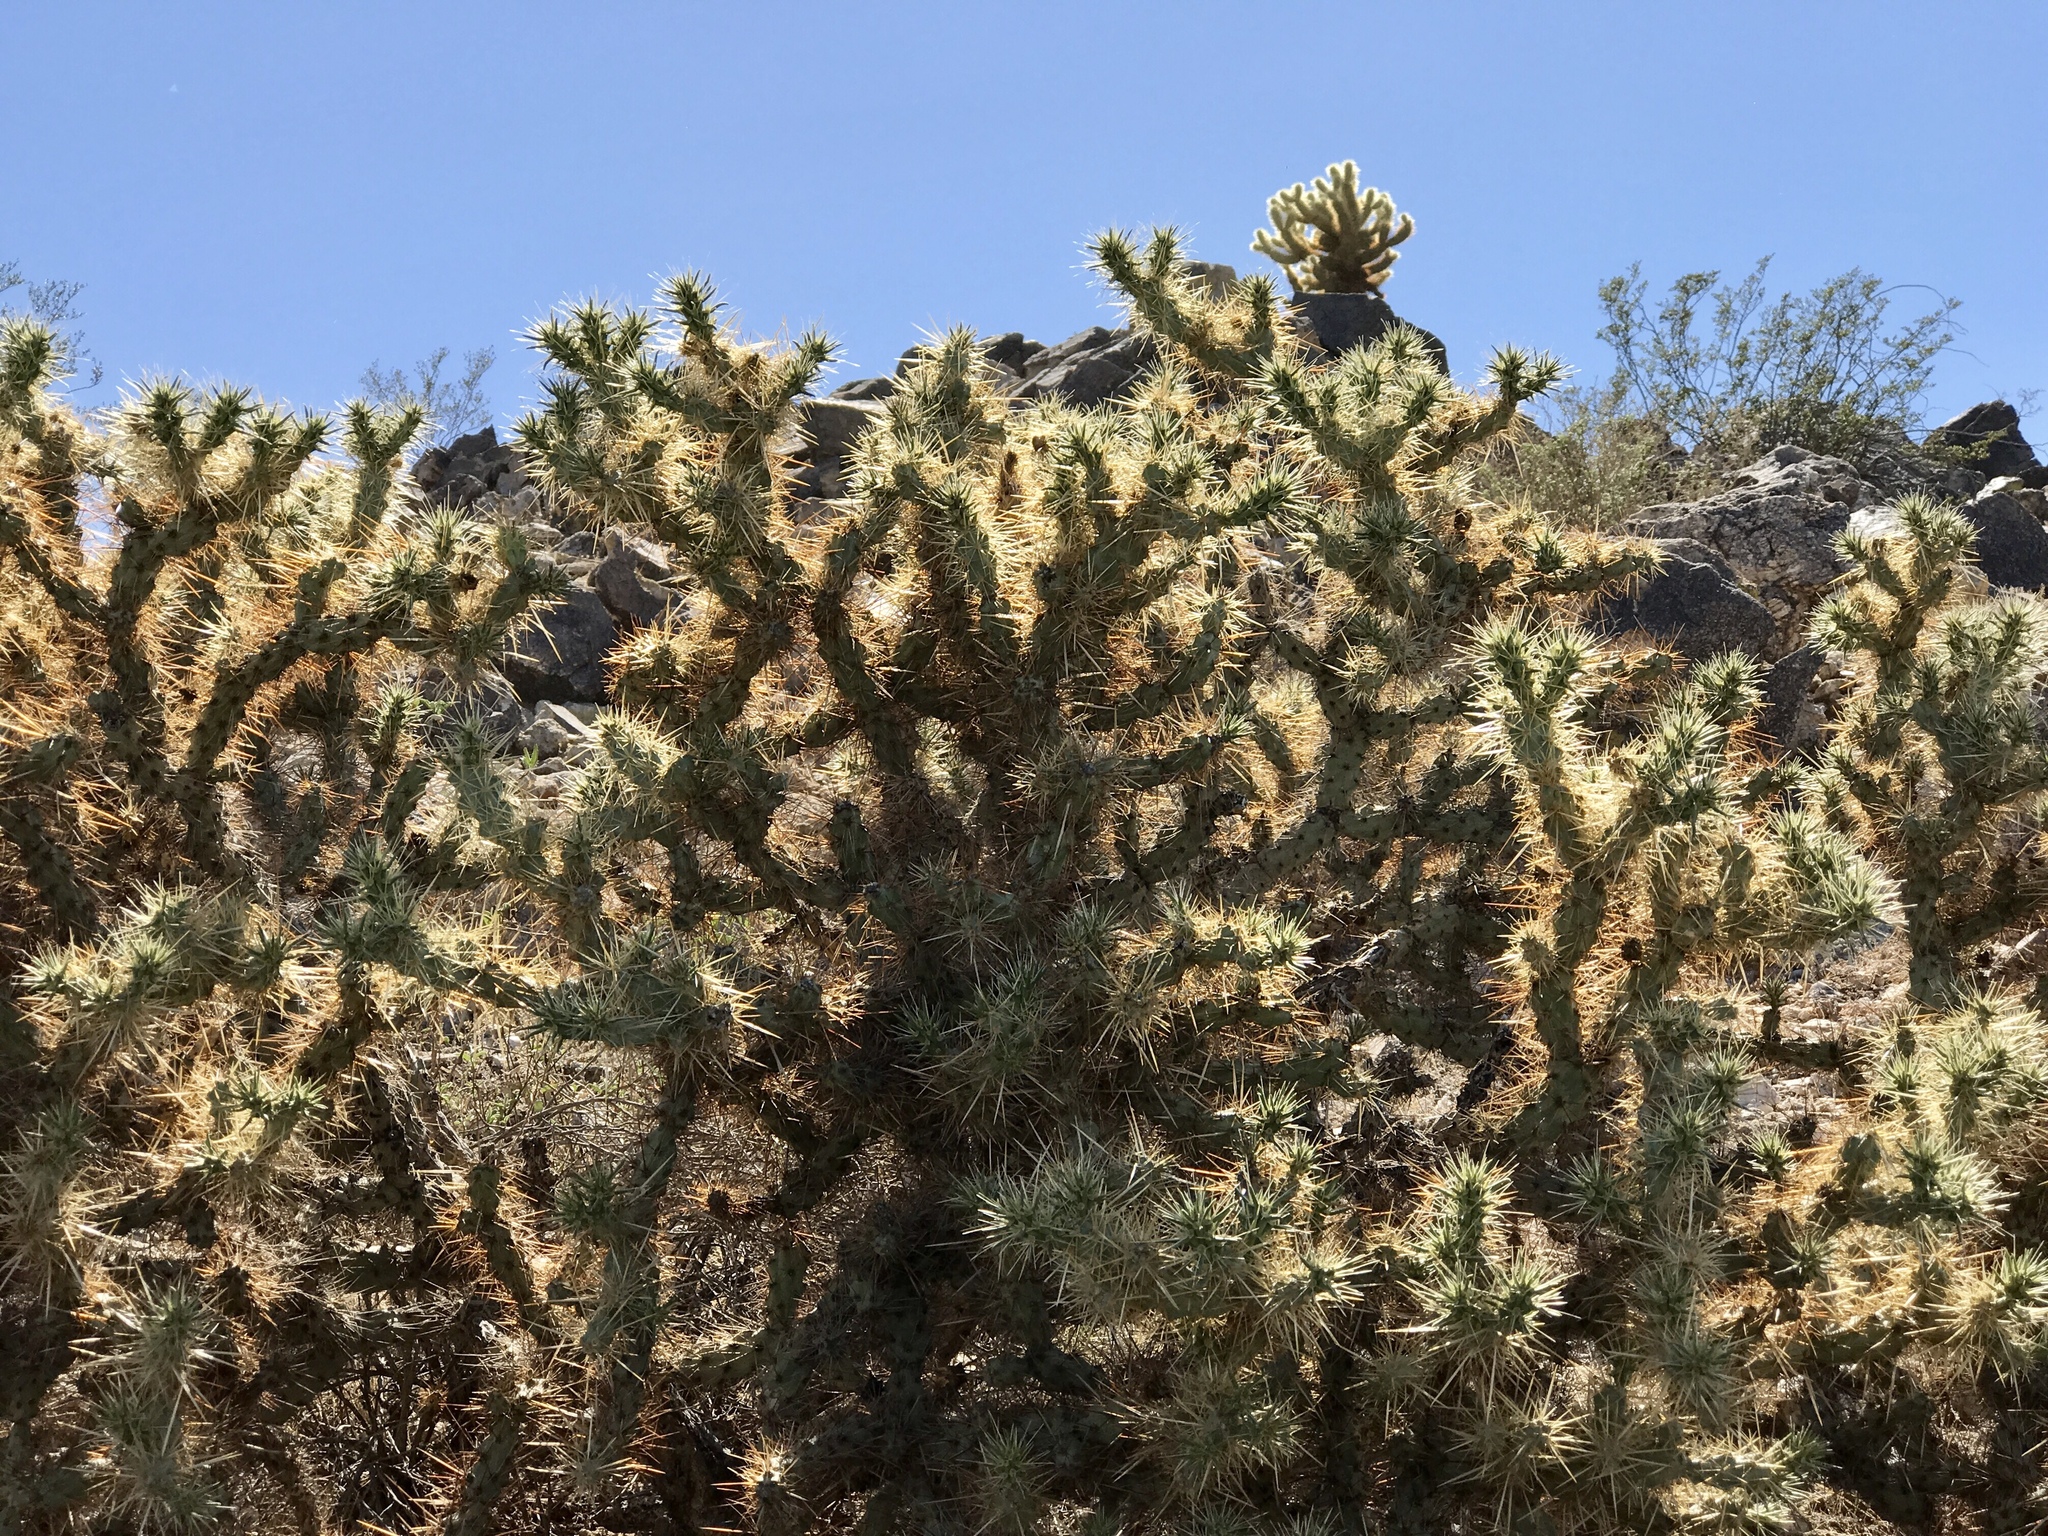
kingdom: Plantae
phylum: Tracheophyta
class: Magnoliopsida
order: Caryophyllales
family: Cactaceae
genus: Cylindropuntia
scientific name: Cylindropuntia acanthocarpa
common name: Buckhorn cholla
